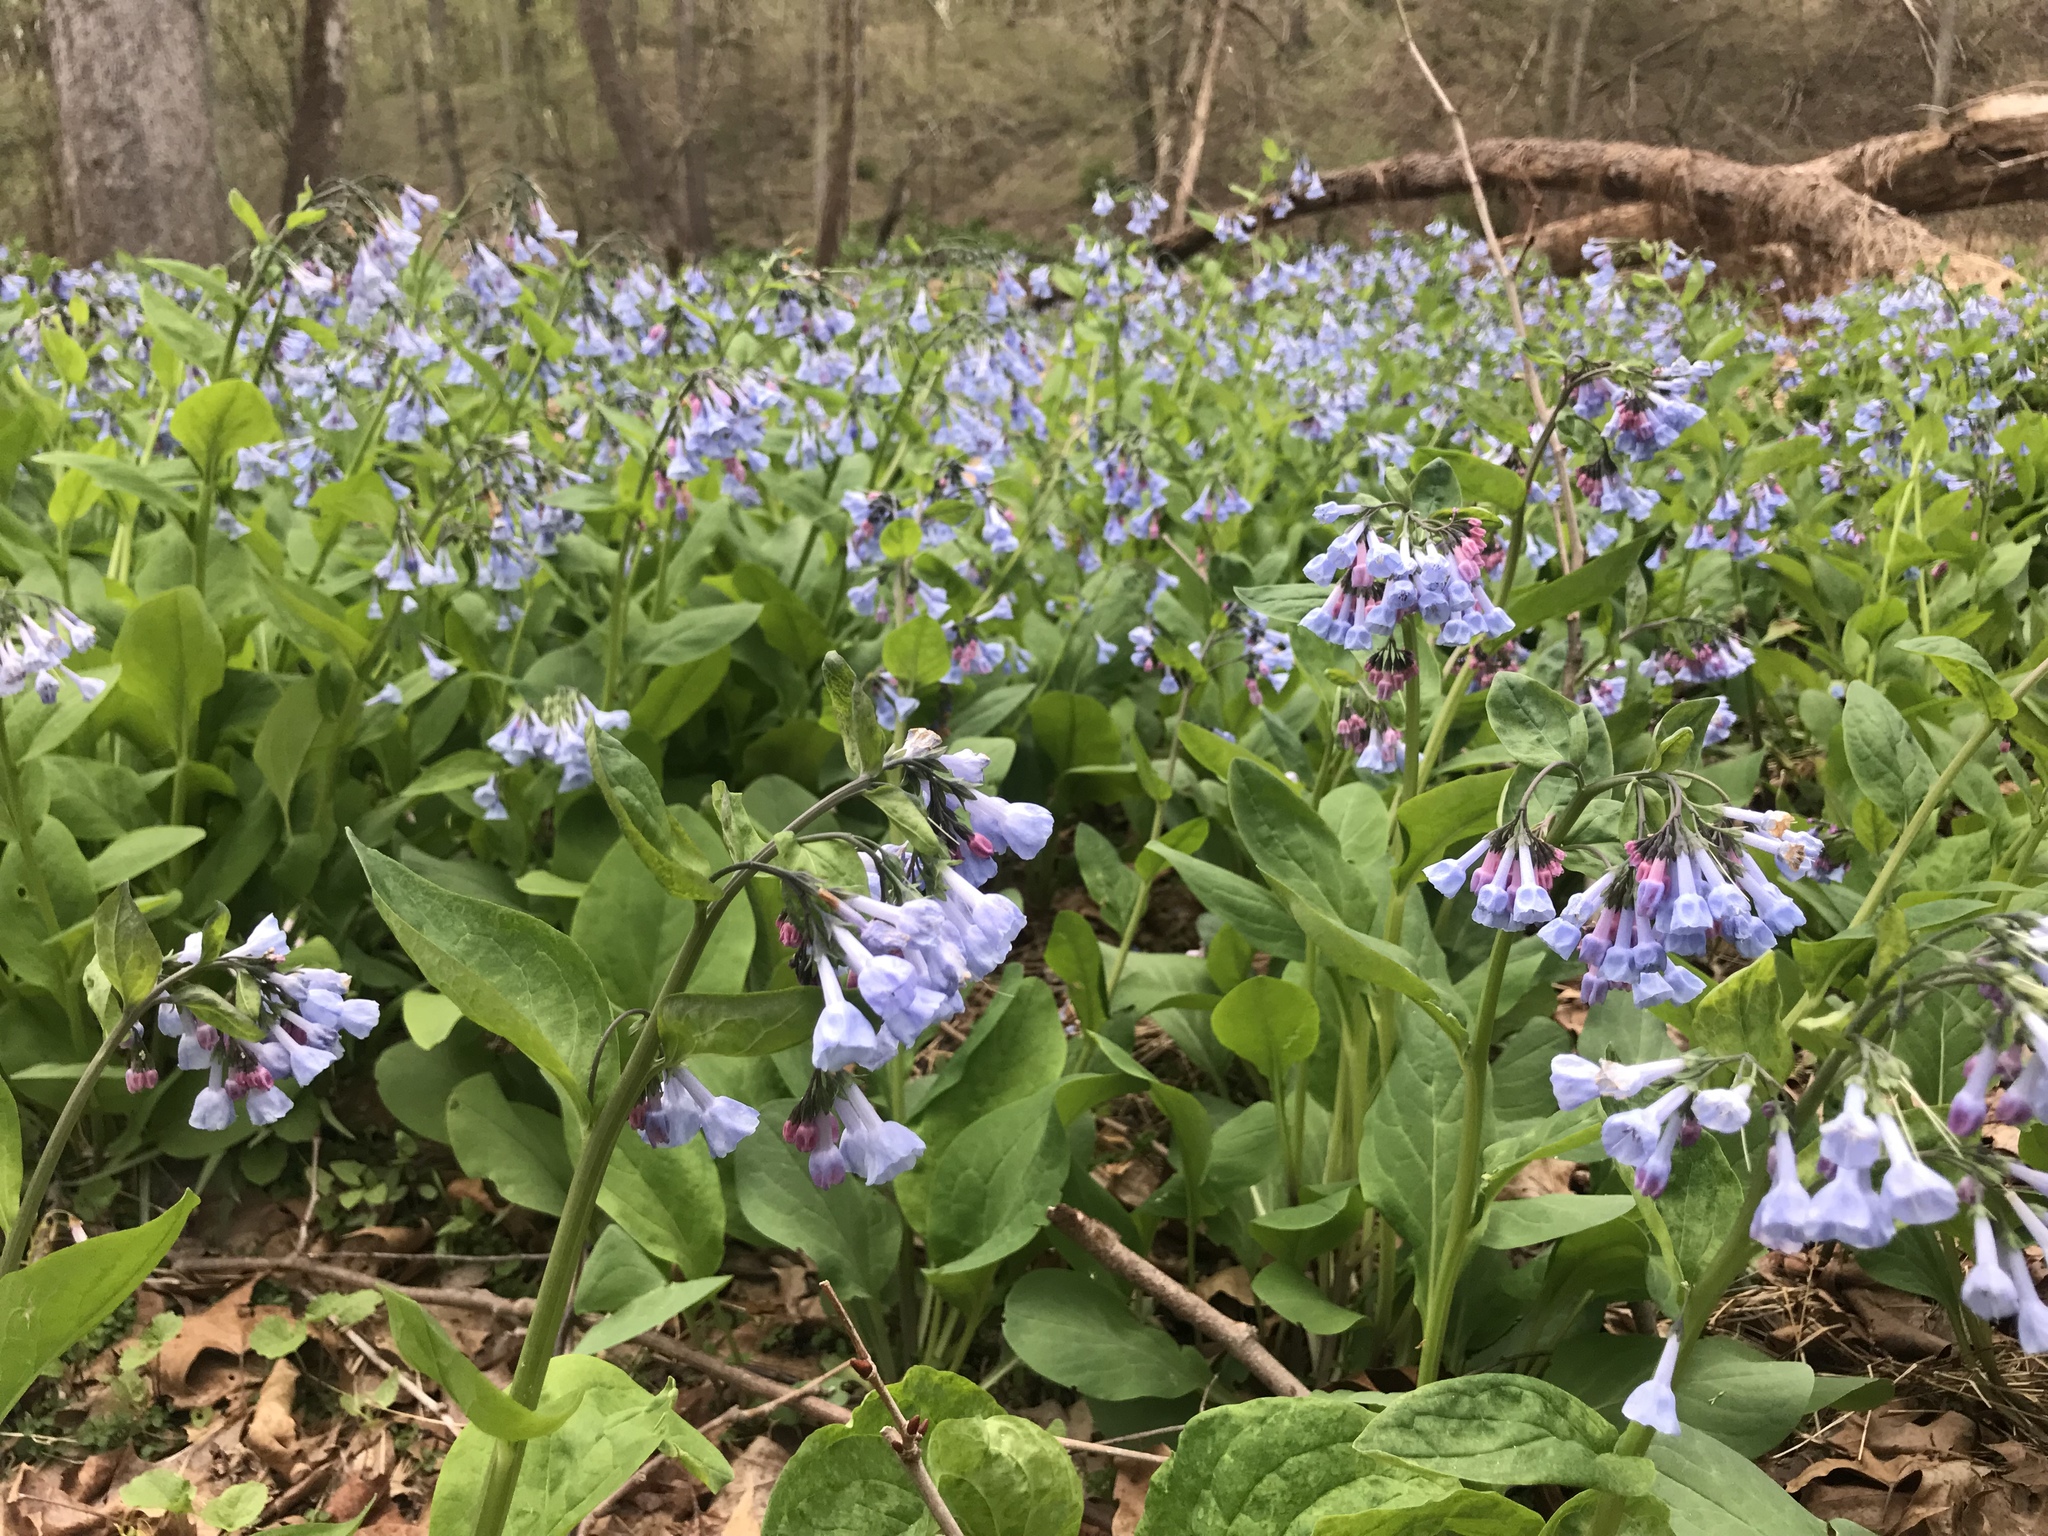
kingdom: Plantae
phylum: Tracheophyta
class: Magnoliopsida
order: Boraginales
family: Boraginaceae
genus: Mertensia
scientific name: Mertensia virginica
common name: Virginia bluebells
